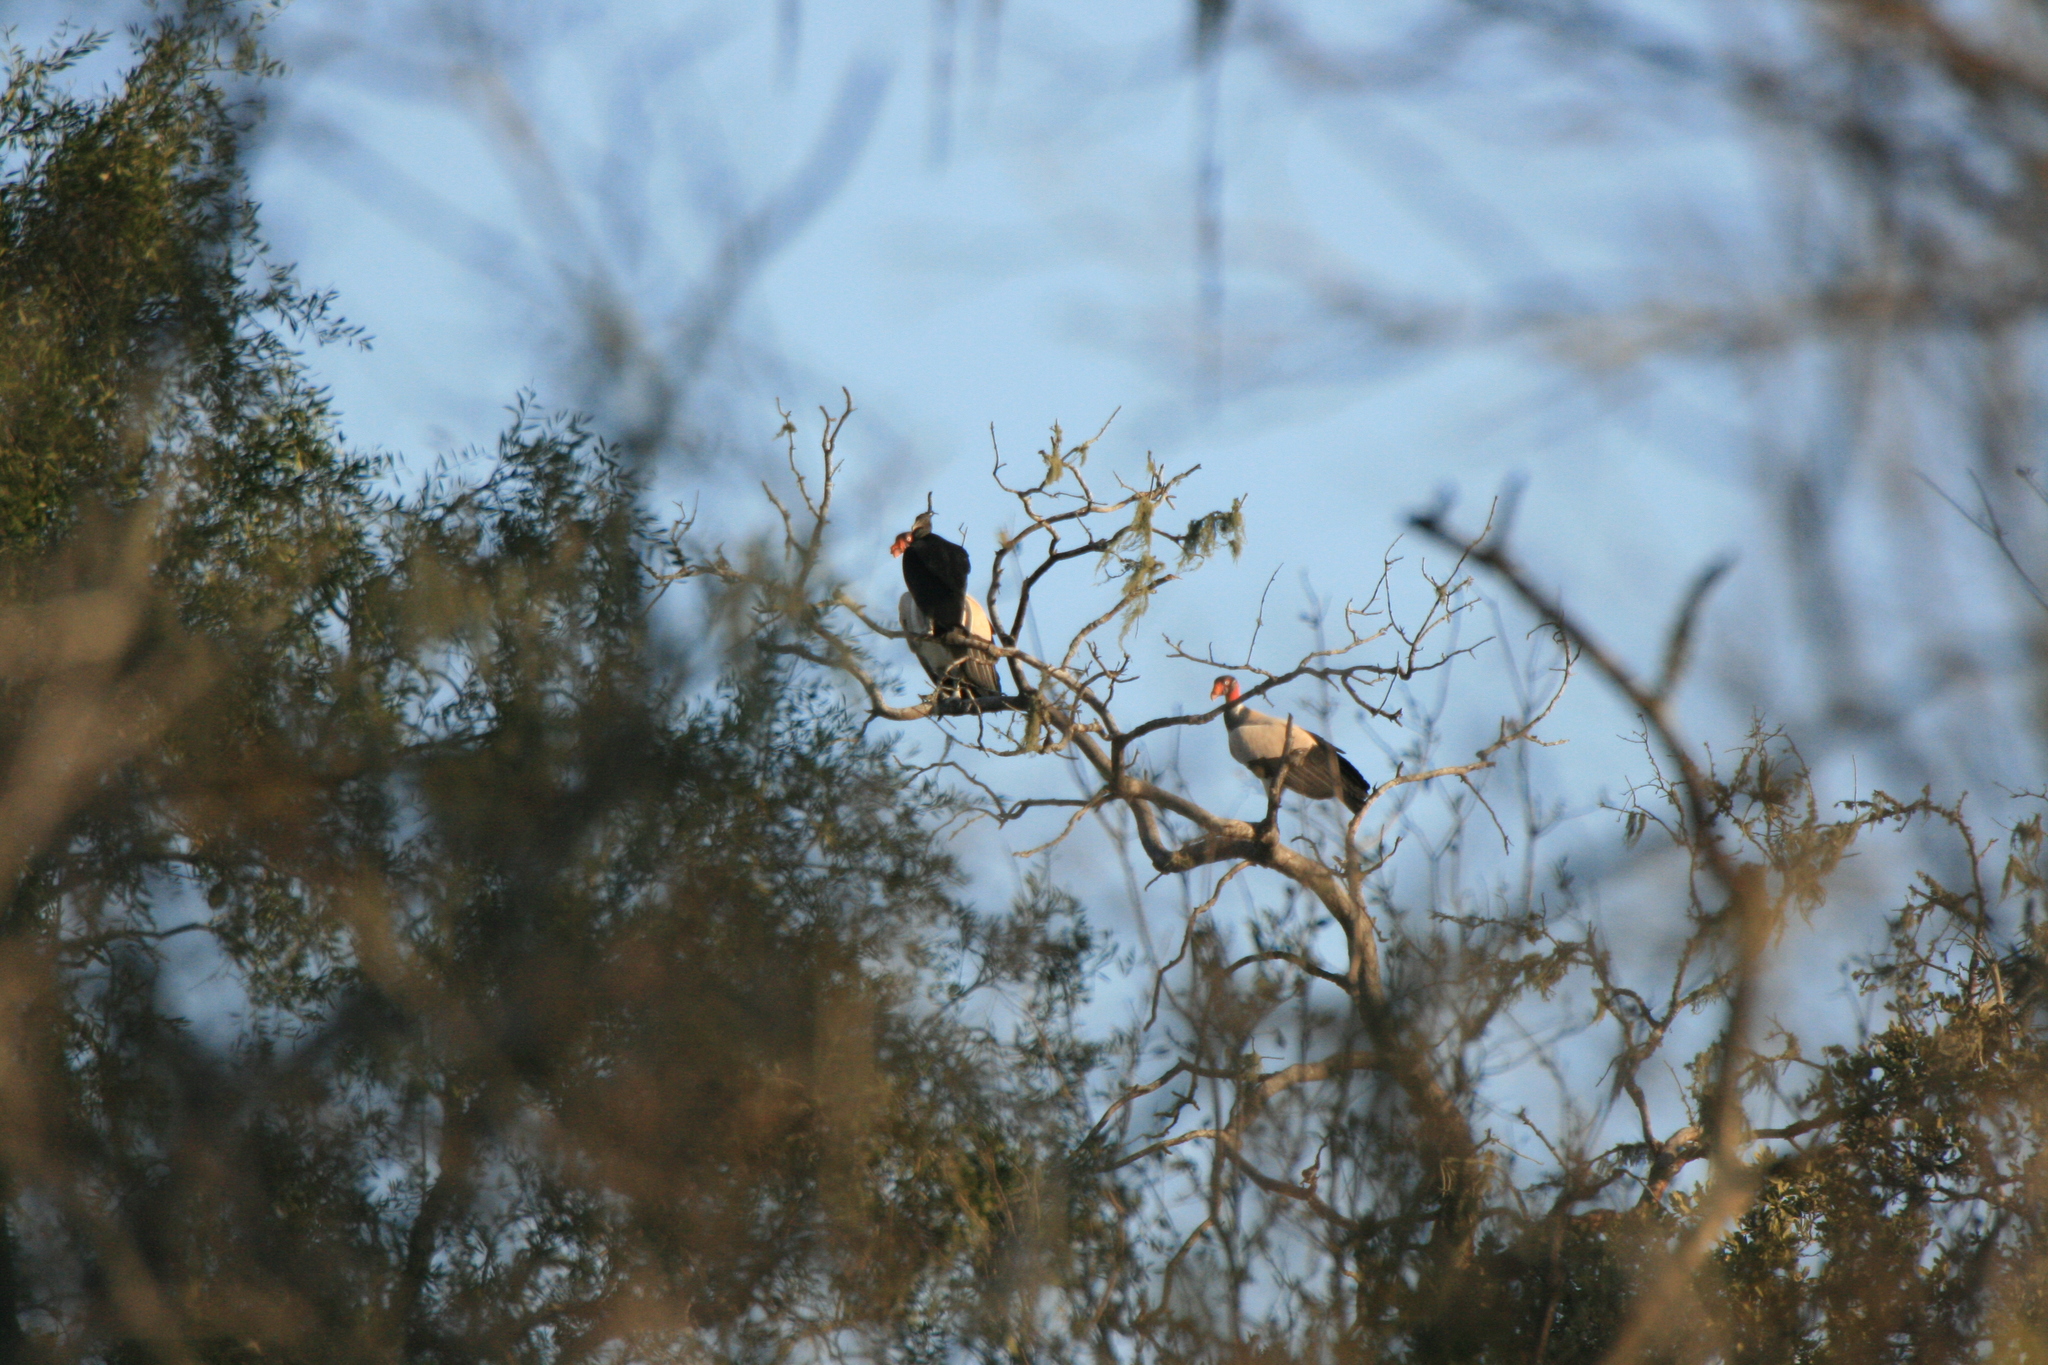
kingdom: Animalia
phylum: Chordata
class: Aves
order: Accipitriformes
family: Cathartidae
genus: Sarcoramphus
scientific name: Sarcoramphus papa
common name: King vulture
